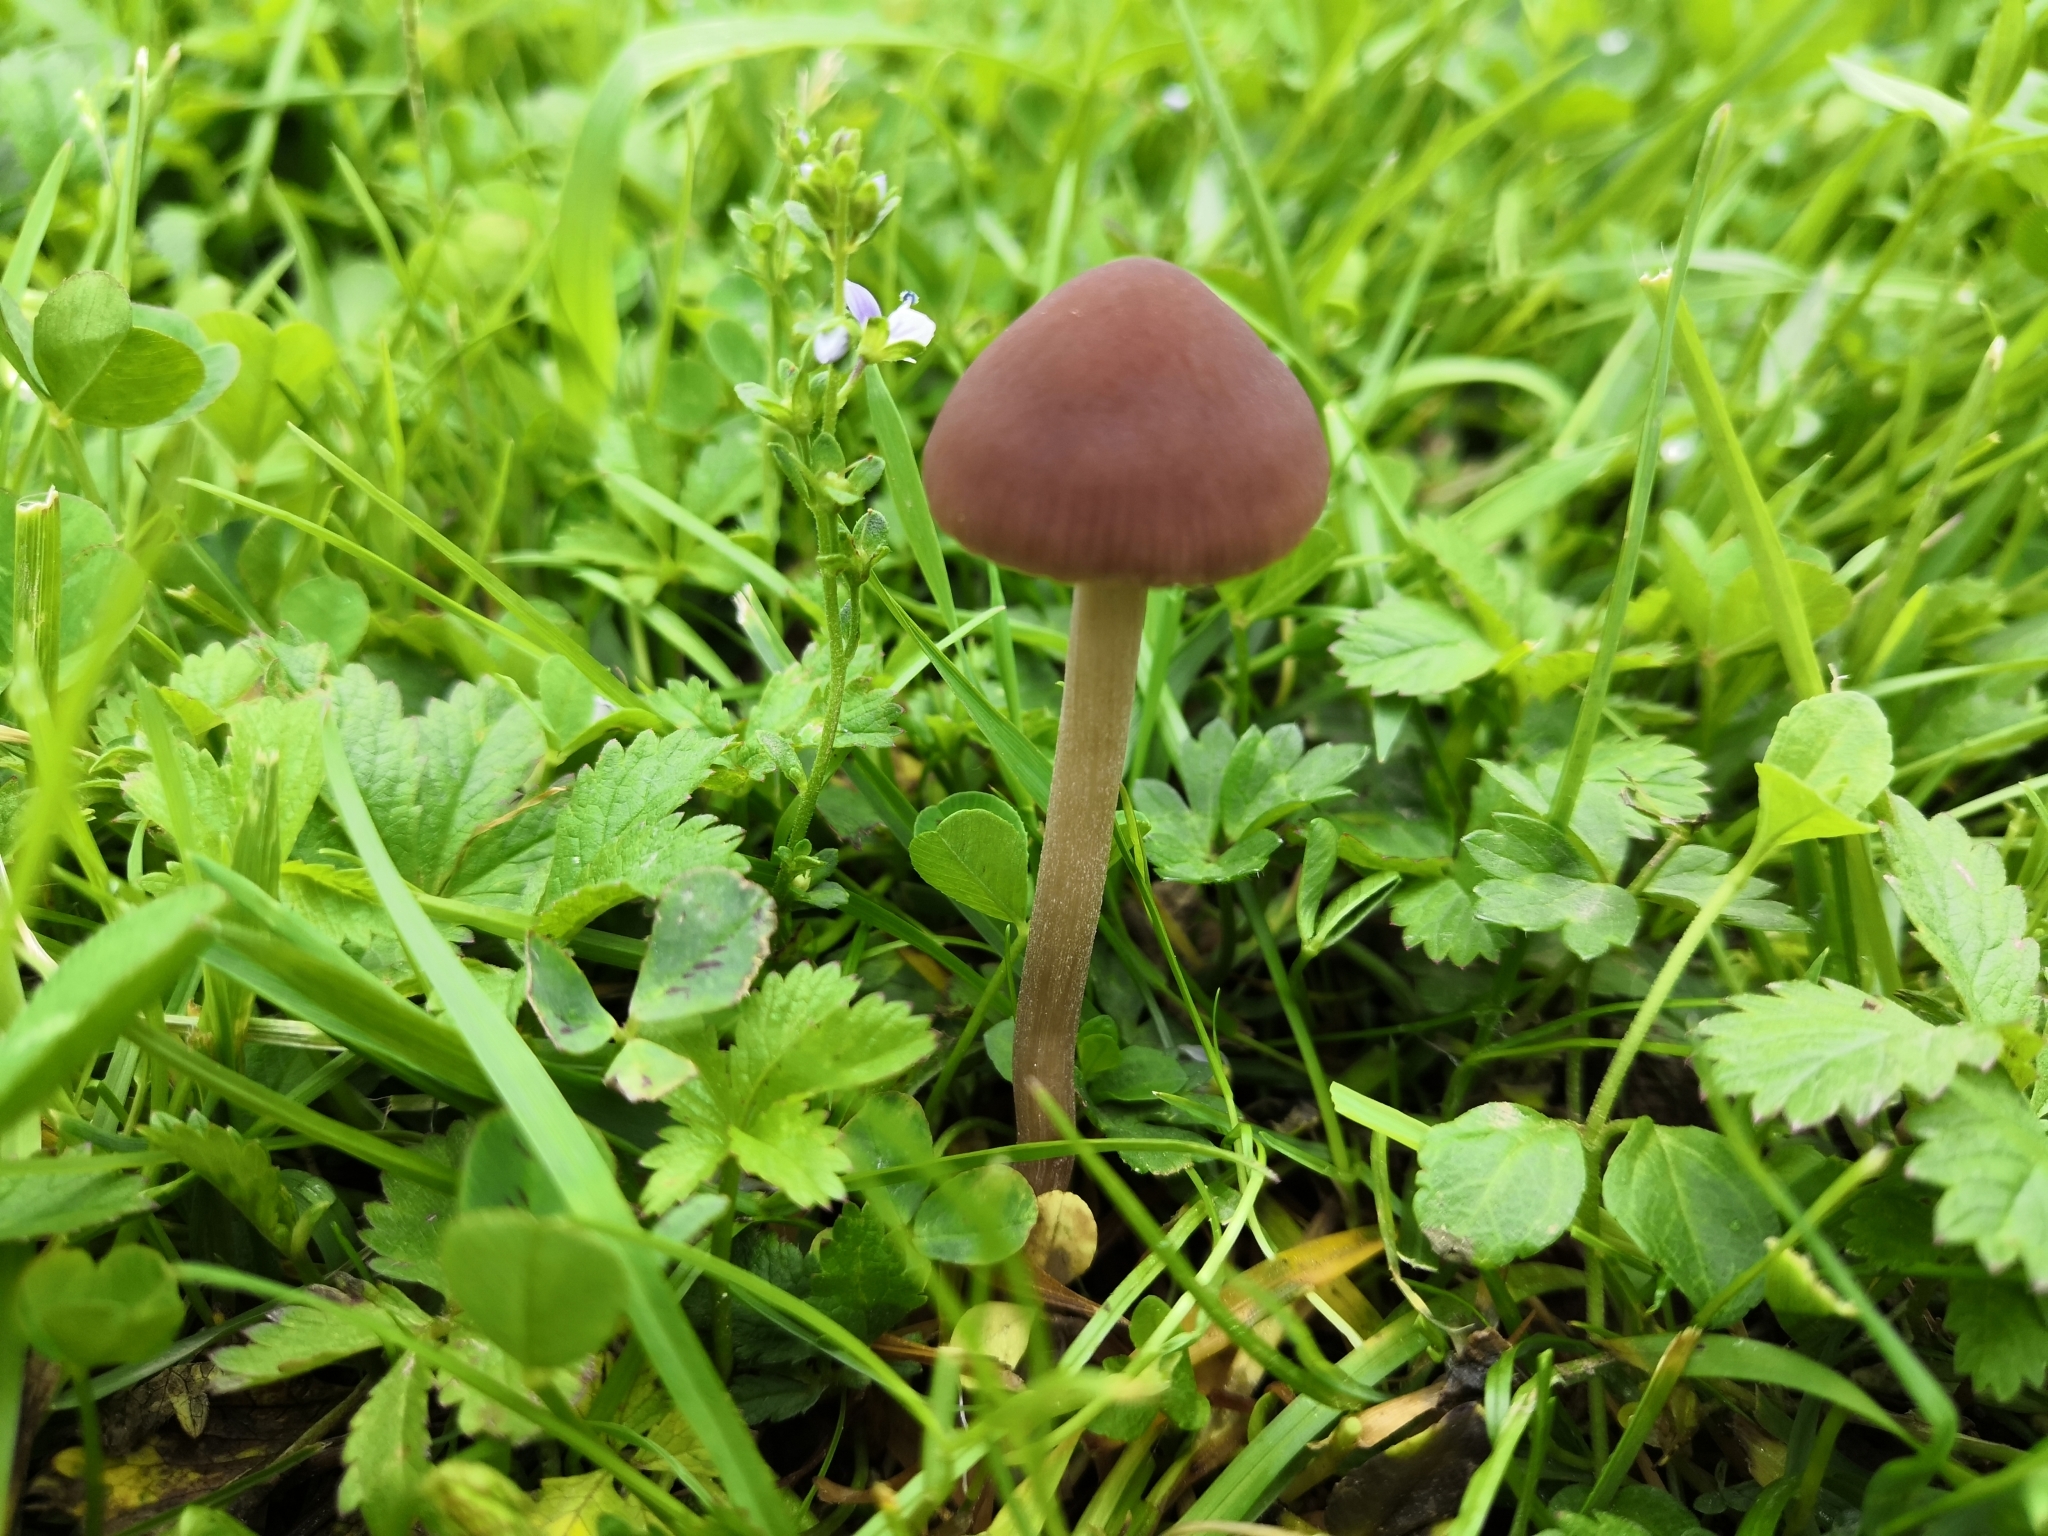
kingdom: Fungi
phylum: Basidiomycota
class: Agaricomycetes
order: Agaricales
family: Bolbitiaceae
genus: Panaeolina
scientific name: Panaeolina foenisecii
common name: Brown hay cap
